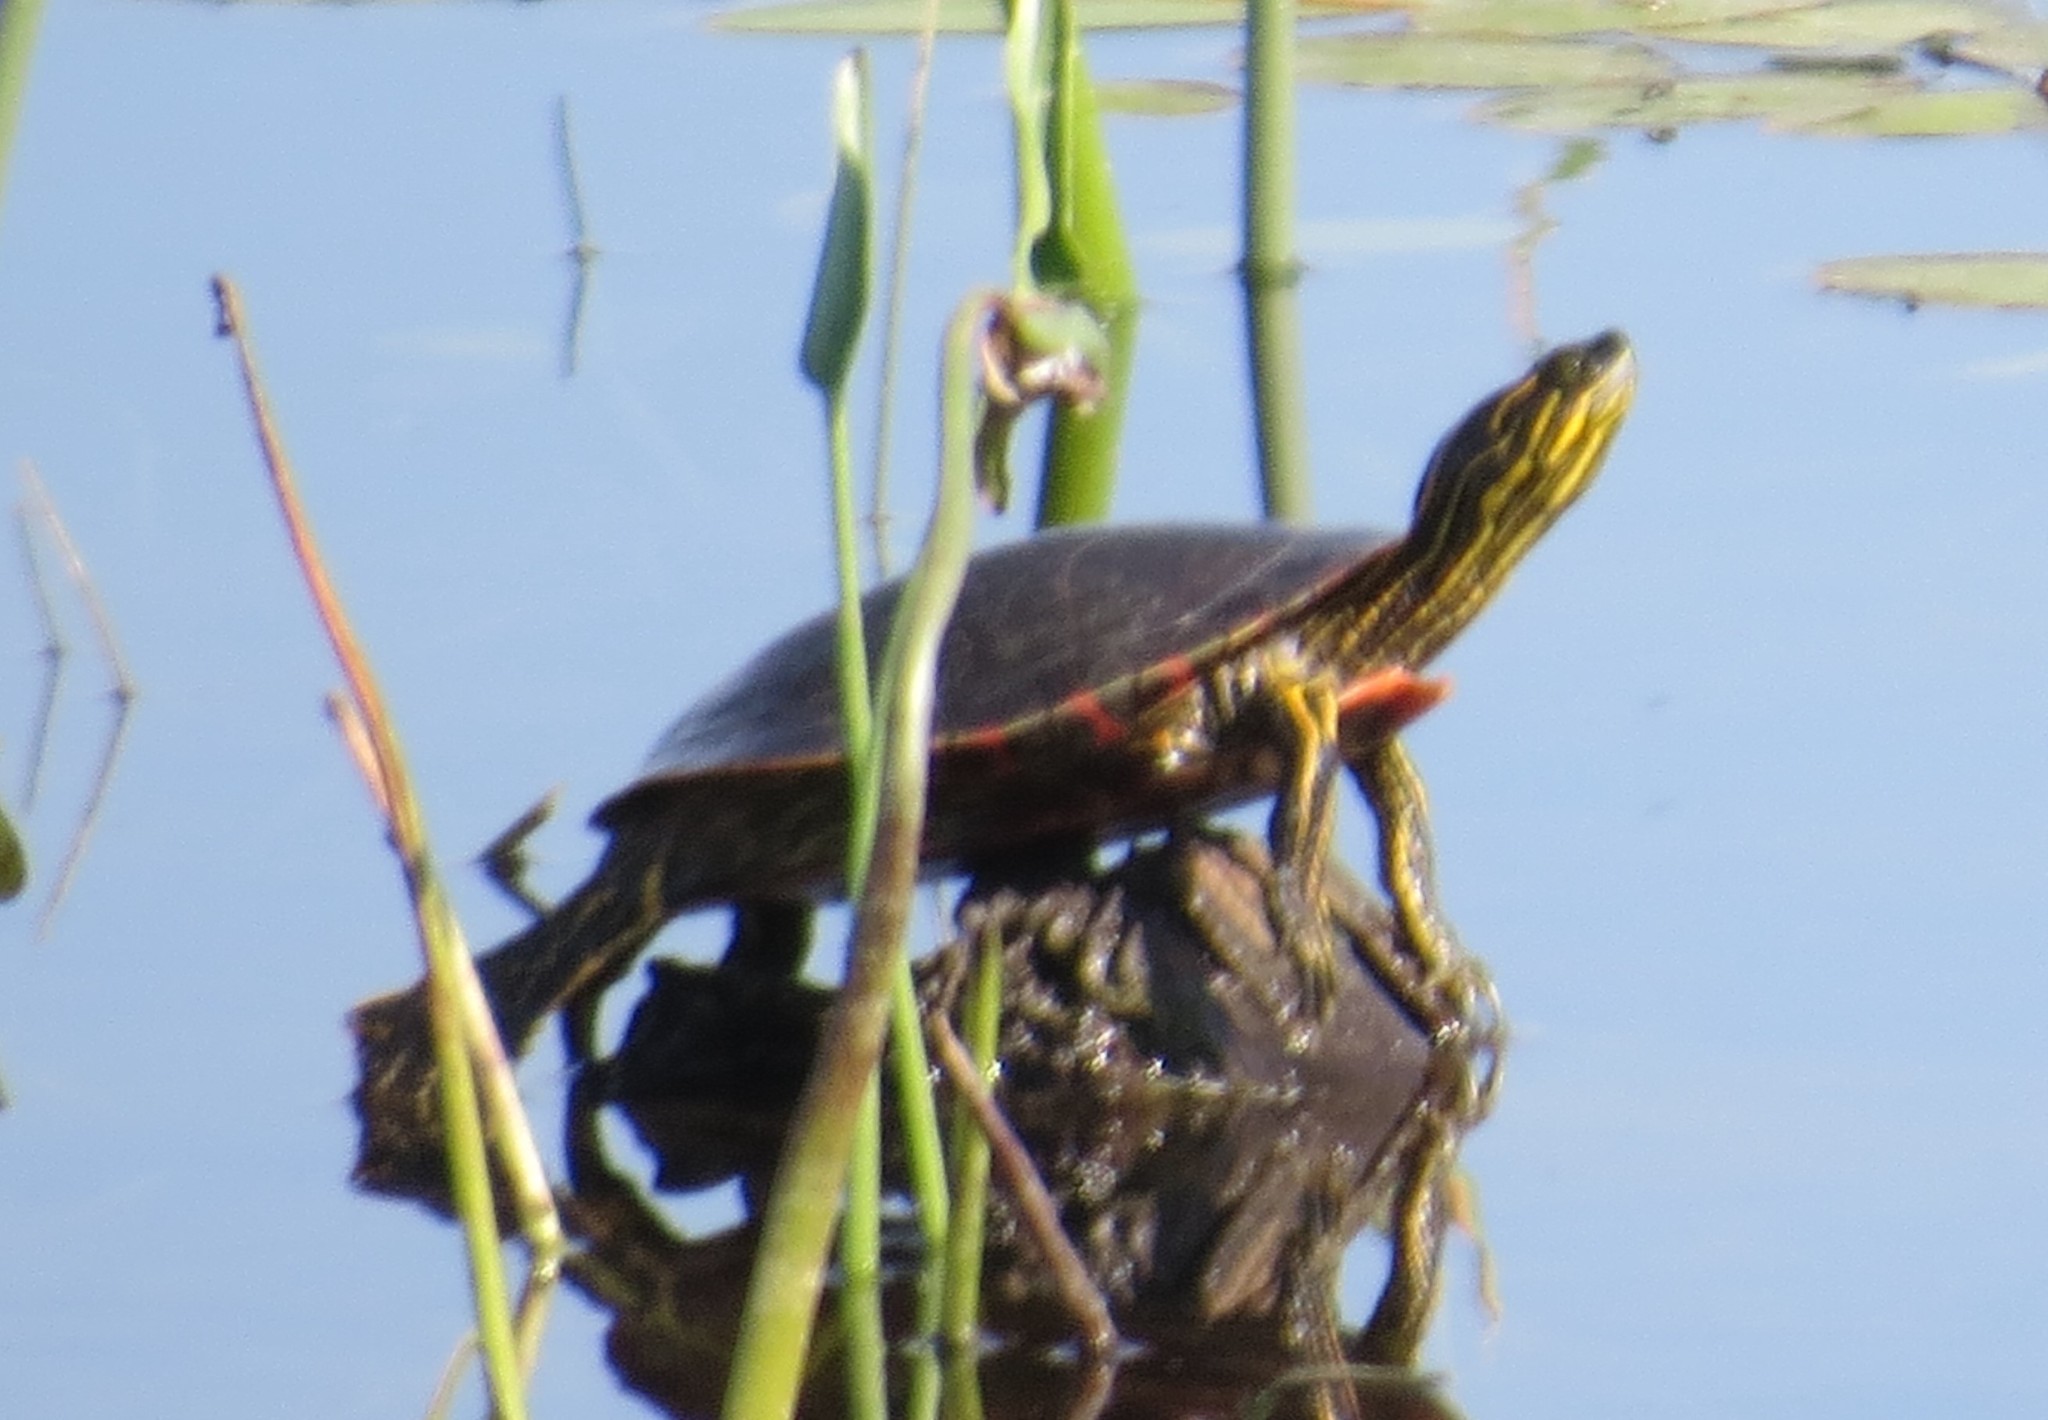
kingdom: Animalia
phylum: Chordata
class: Testudines
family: Emydidae
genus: Chrysemys
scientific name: Chrysemys picta
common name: Painted turtle
